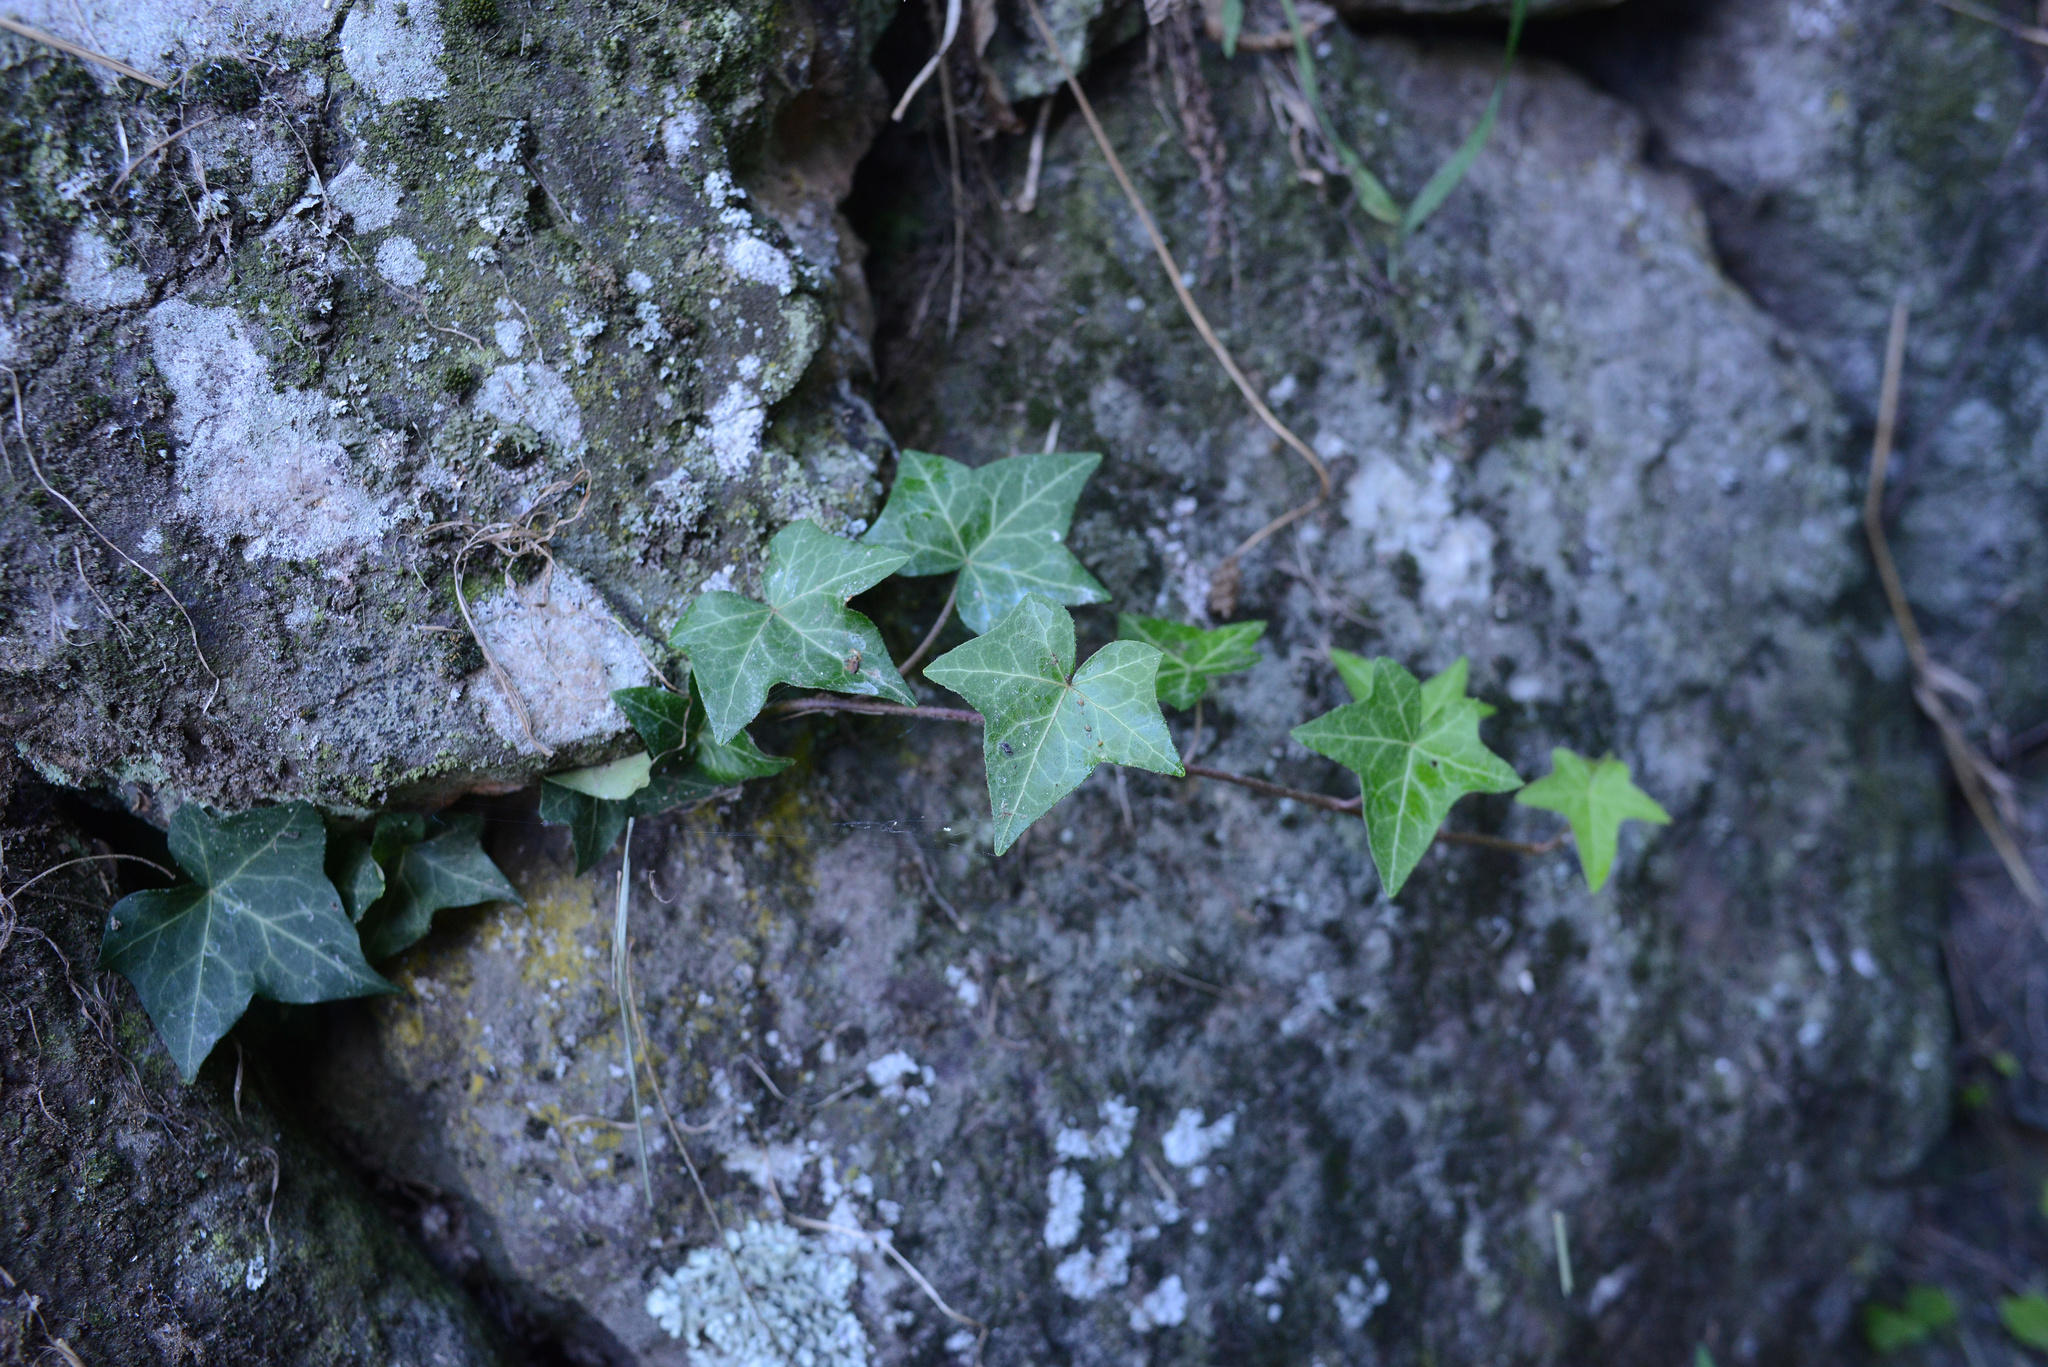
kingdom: Plantae
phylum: Tracheophyta
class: Magnoliopsida
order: Apiales
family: Araliaceae
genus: Hedera
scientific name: Hedera helix
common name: Ivy
